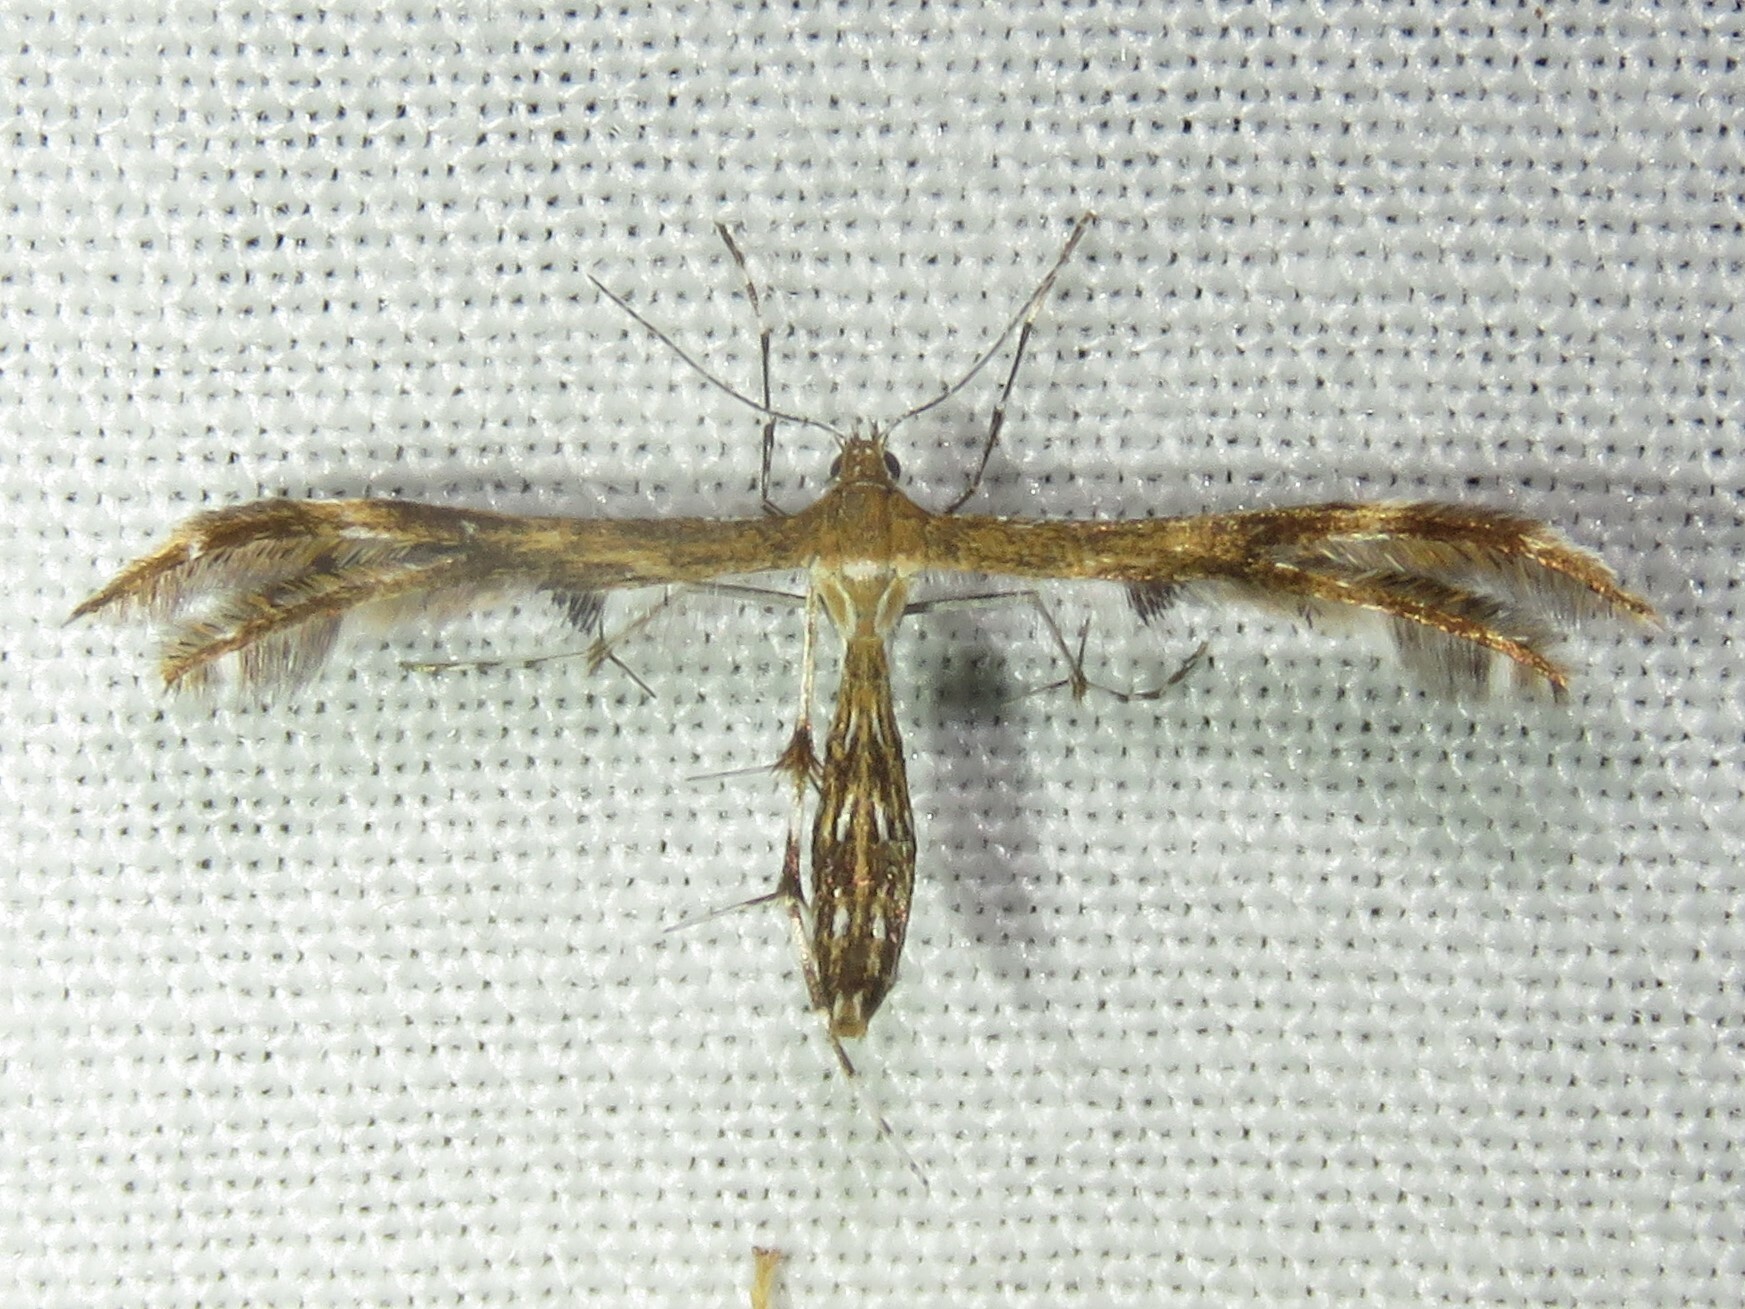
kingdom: Animalia
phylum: Arthropoda
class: Insecta
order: Lepidoptera
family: Pterophoridae
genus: Dejongia
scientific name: Dejongia lobidactylus
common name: Lobed plume moth
